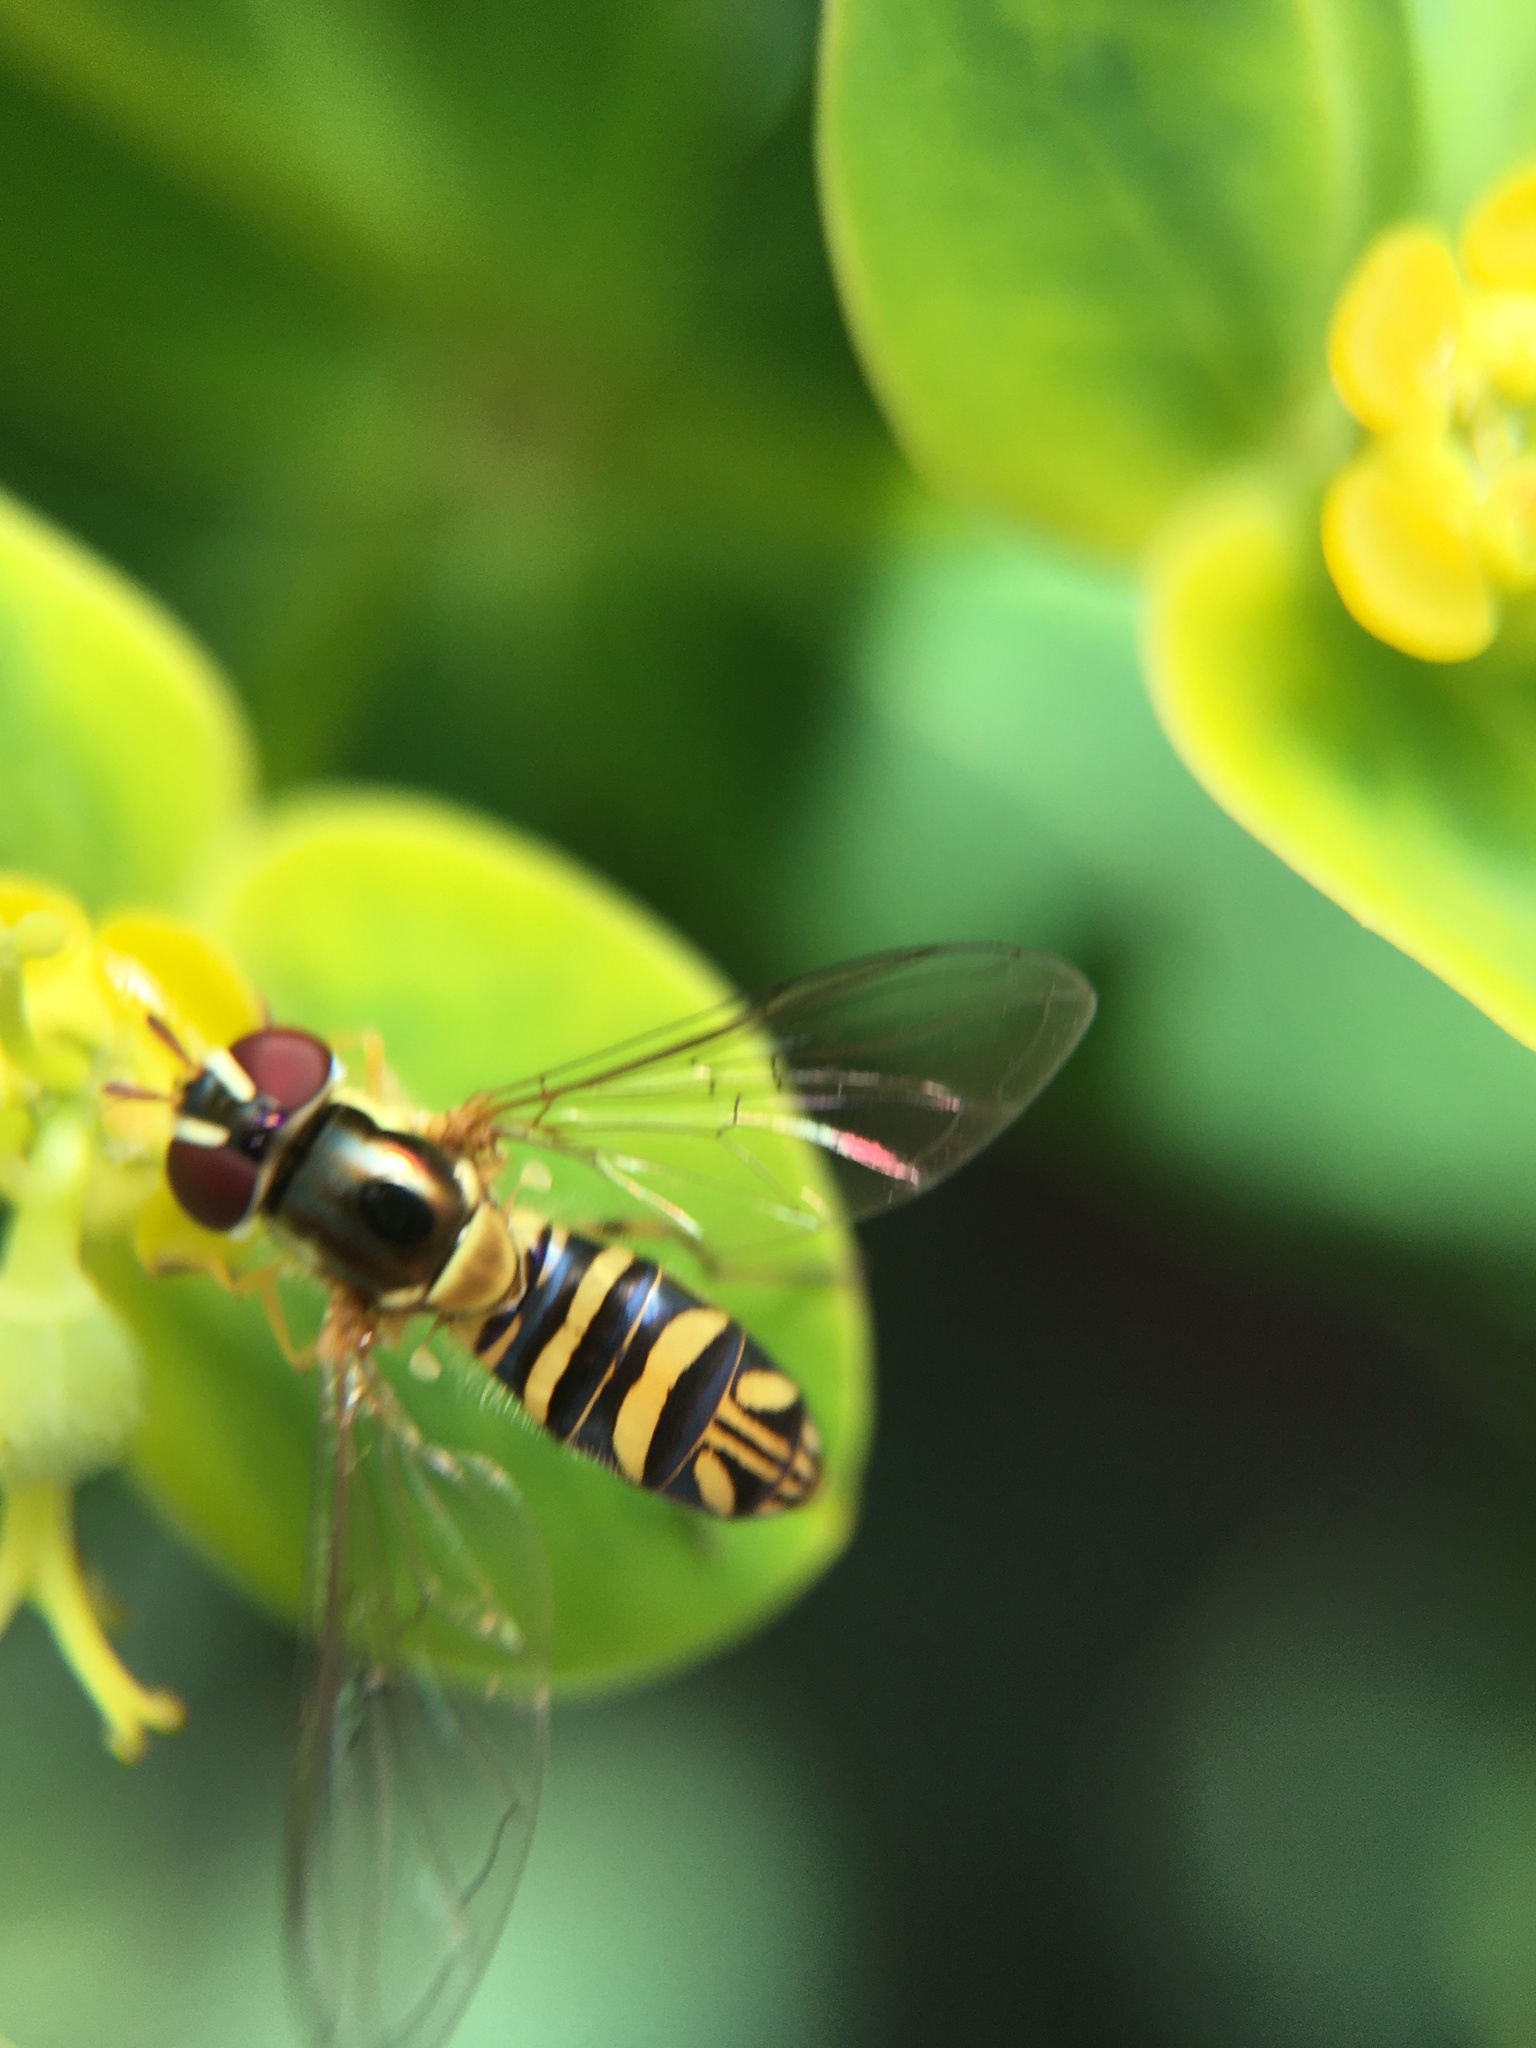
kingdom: Animalia
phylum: Arthropoda
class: Insecta
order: Diptera
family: Syrphidae
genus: Allograpta
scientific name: Allograpta obliqua
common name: Common oblique syrphid
